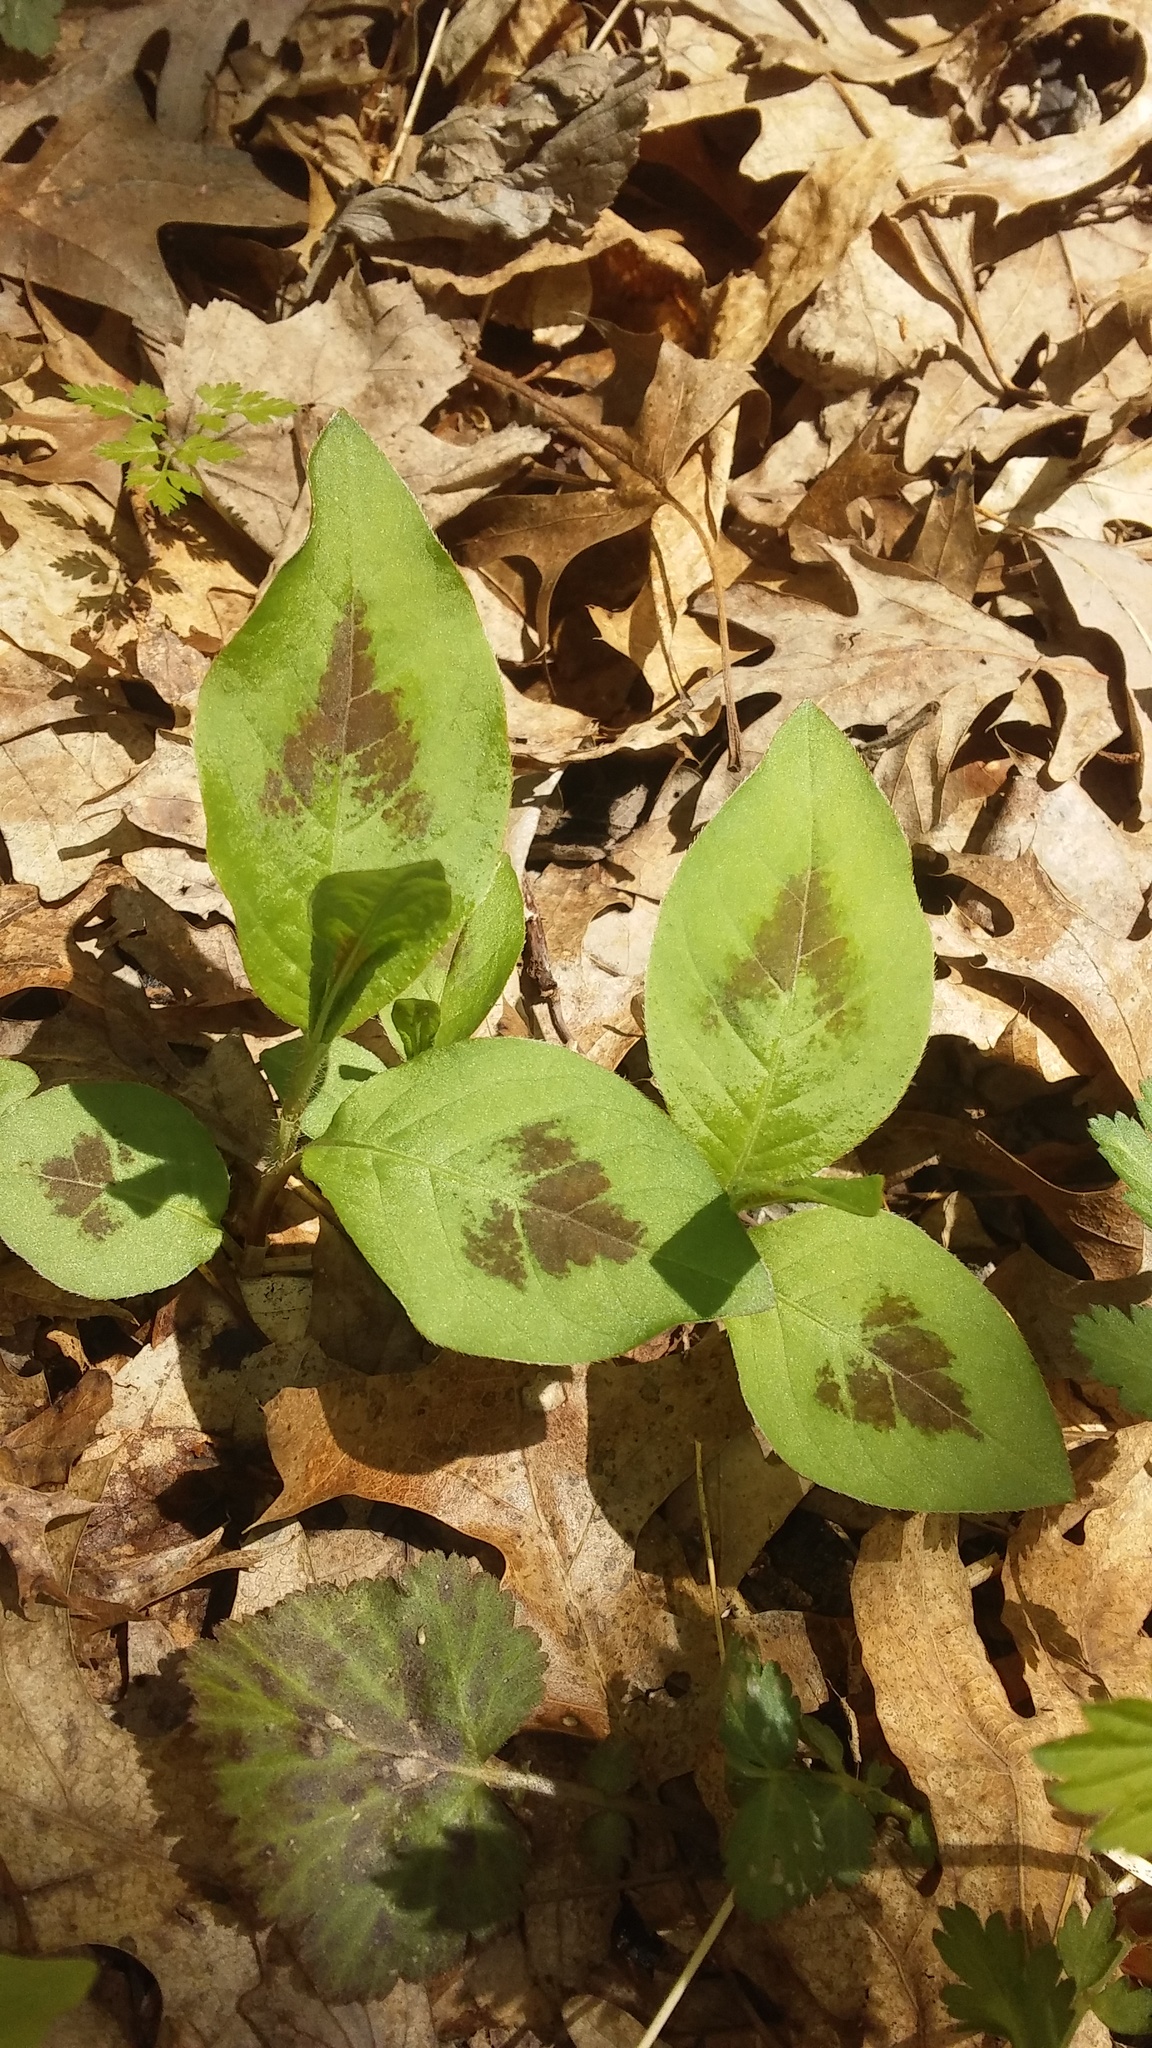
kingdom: Plantae
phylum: Tracheophyta
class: Magnoliopsida
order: Caryophyllales
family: Polygonaceae
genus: Persicaria
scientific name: Persicaria virginiana
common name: Jumpseed
